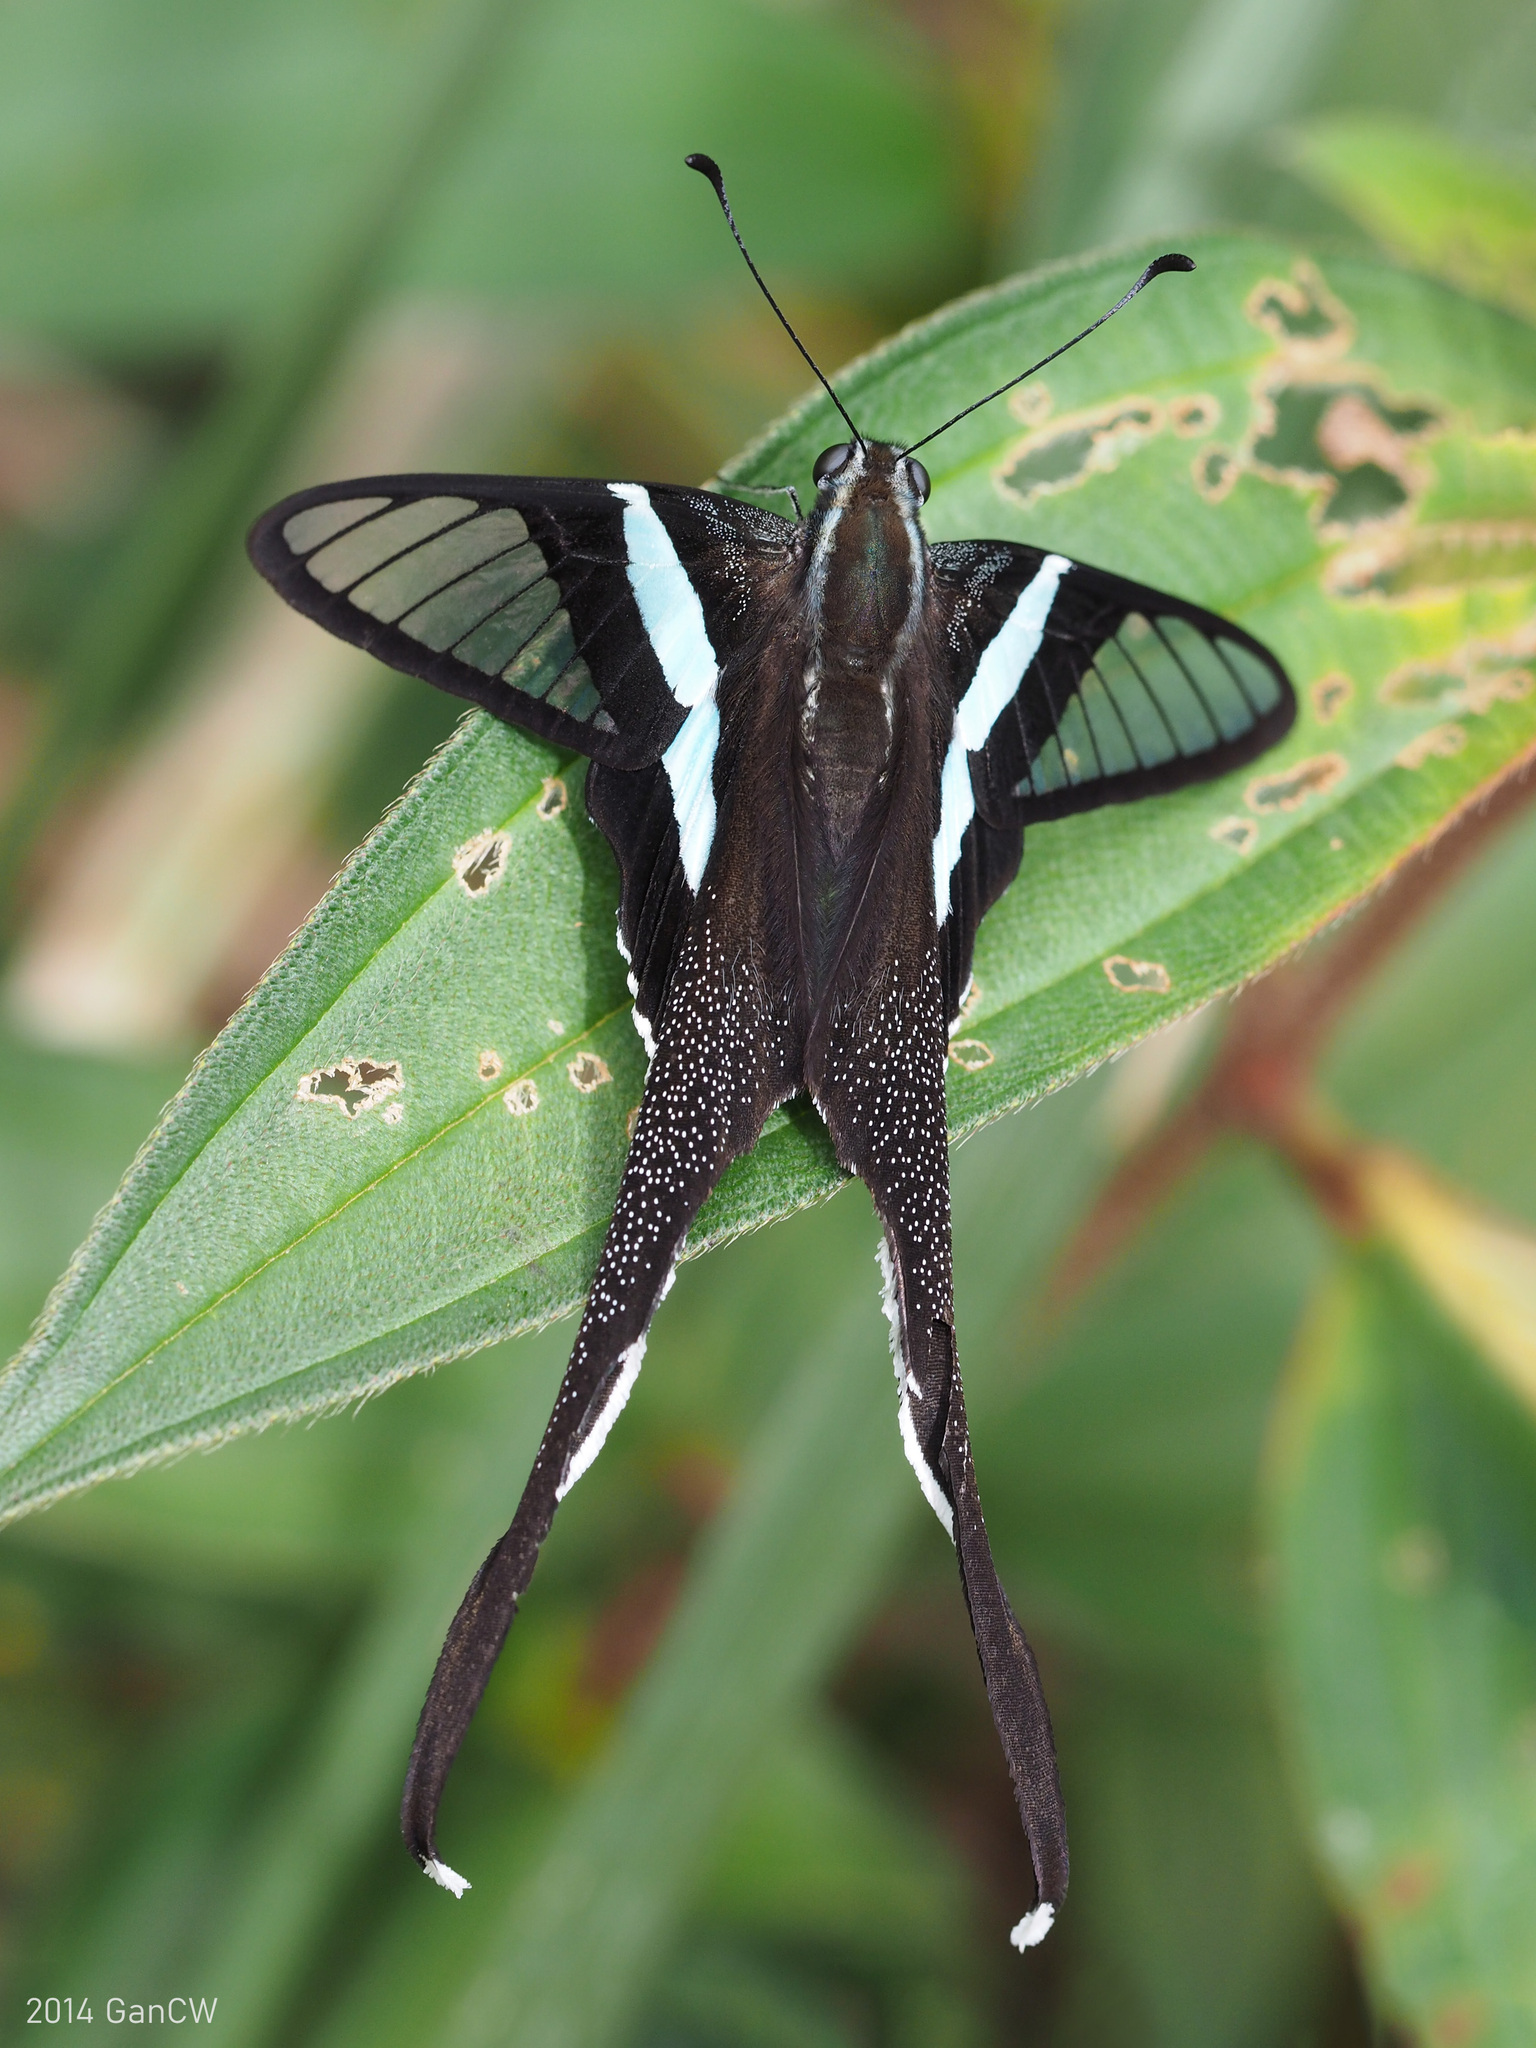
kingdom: Animalia
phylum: Arthropoda
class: Insecta
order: Lepidoptera
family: Papilionidae
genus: Lamproptera
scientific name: Lamproptera meges
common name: Green dragontail
